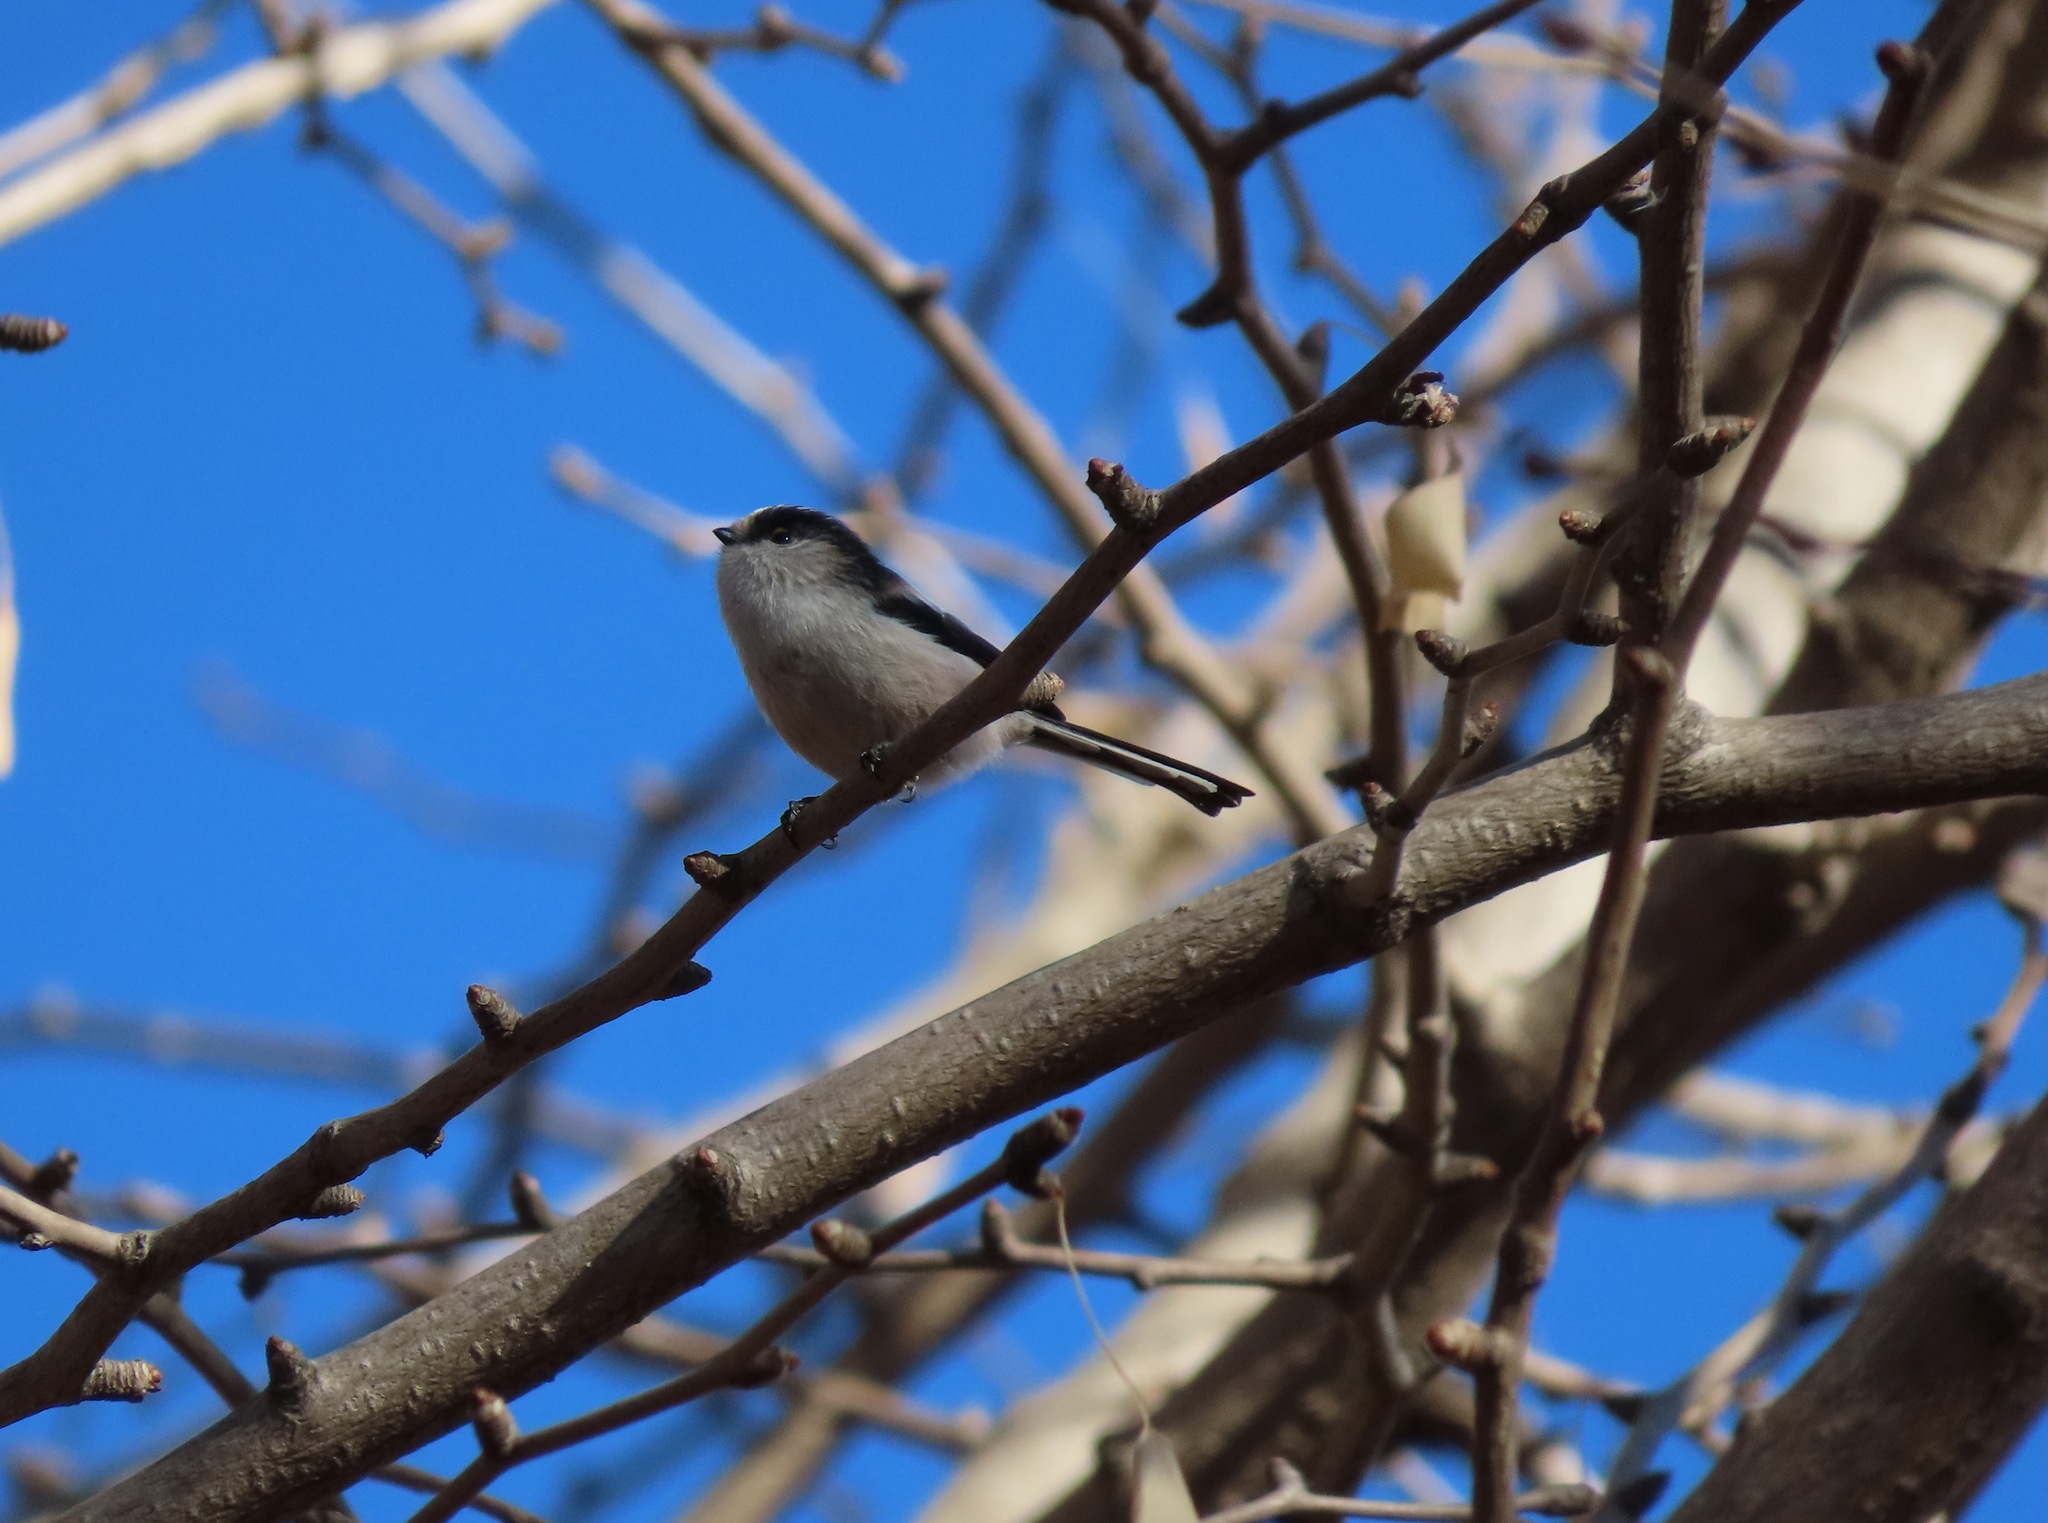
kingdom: Animalia
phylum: Chordata
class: Aves
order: Passeriformes
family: Aegithalidae
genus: Aegithalos
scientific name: Aegithalos caudatus
